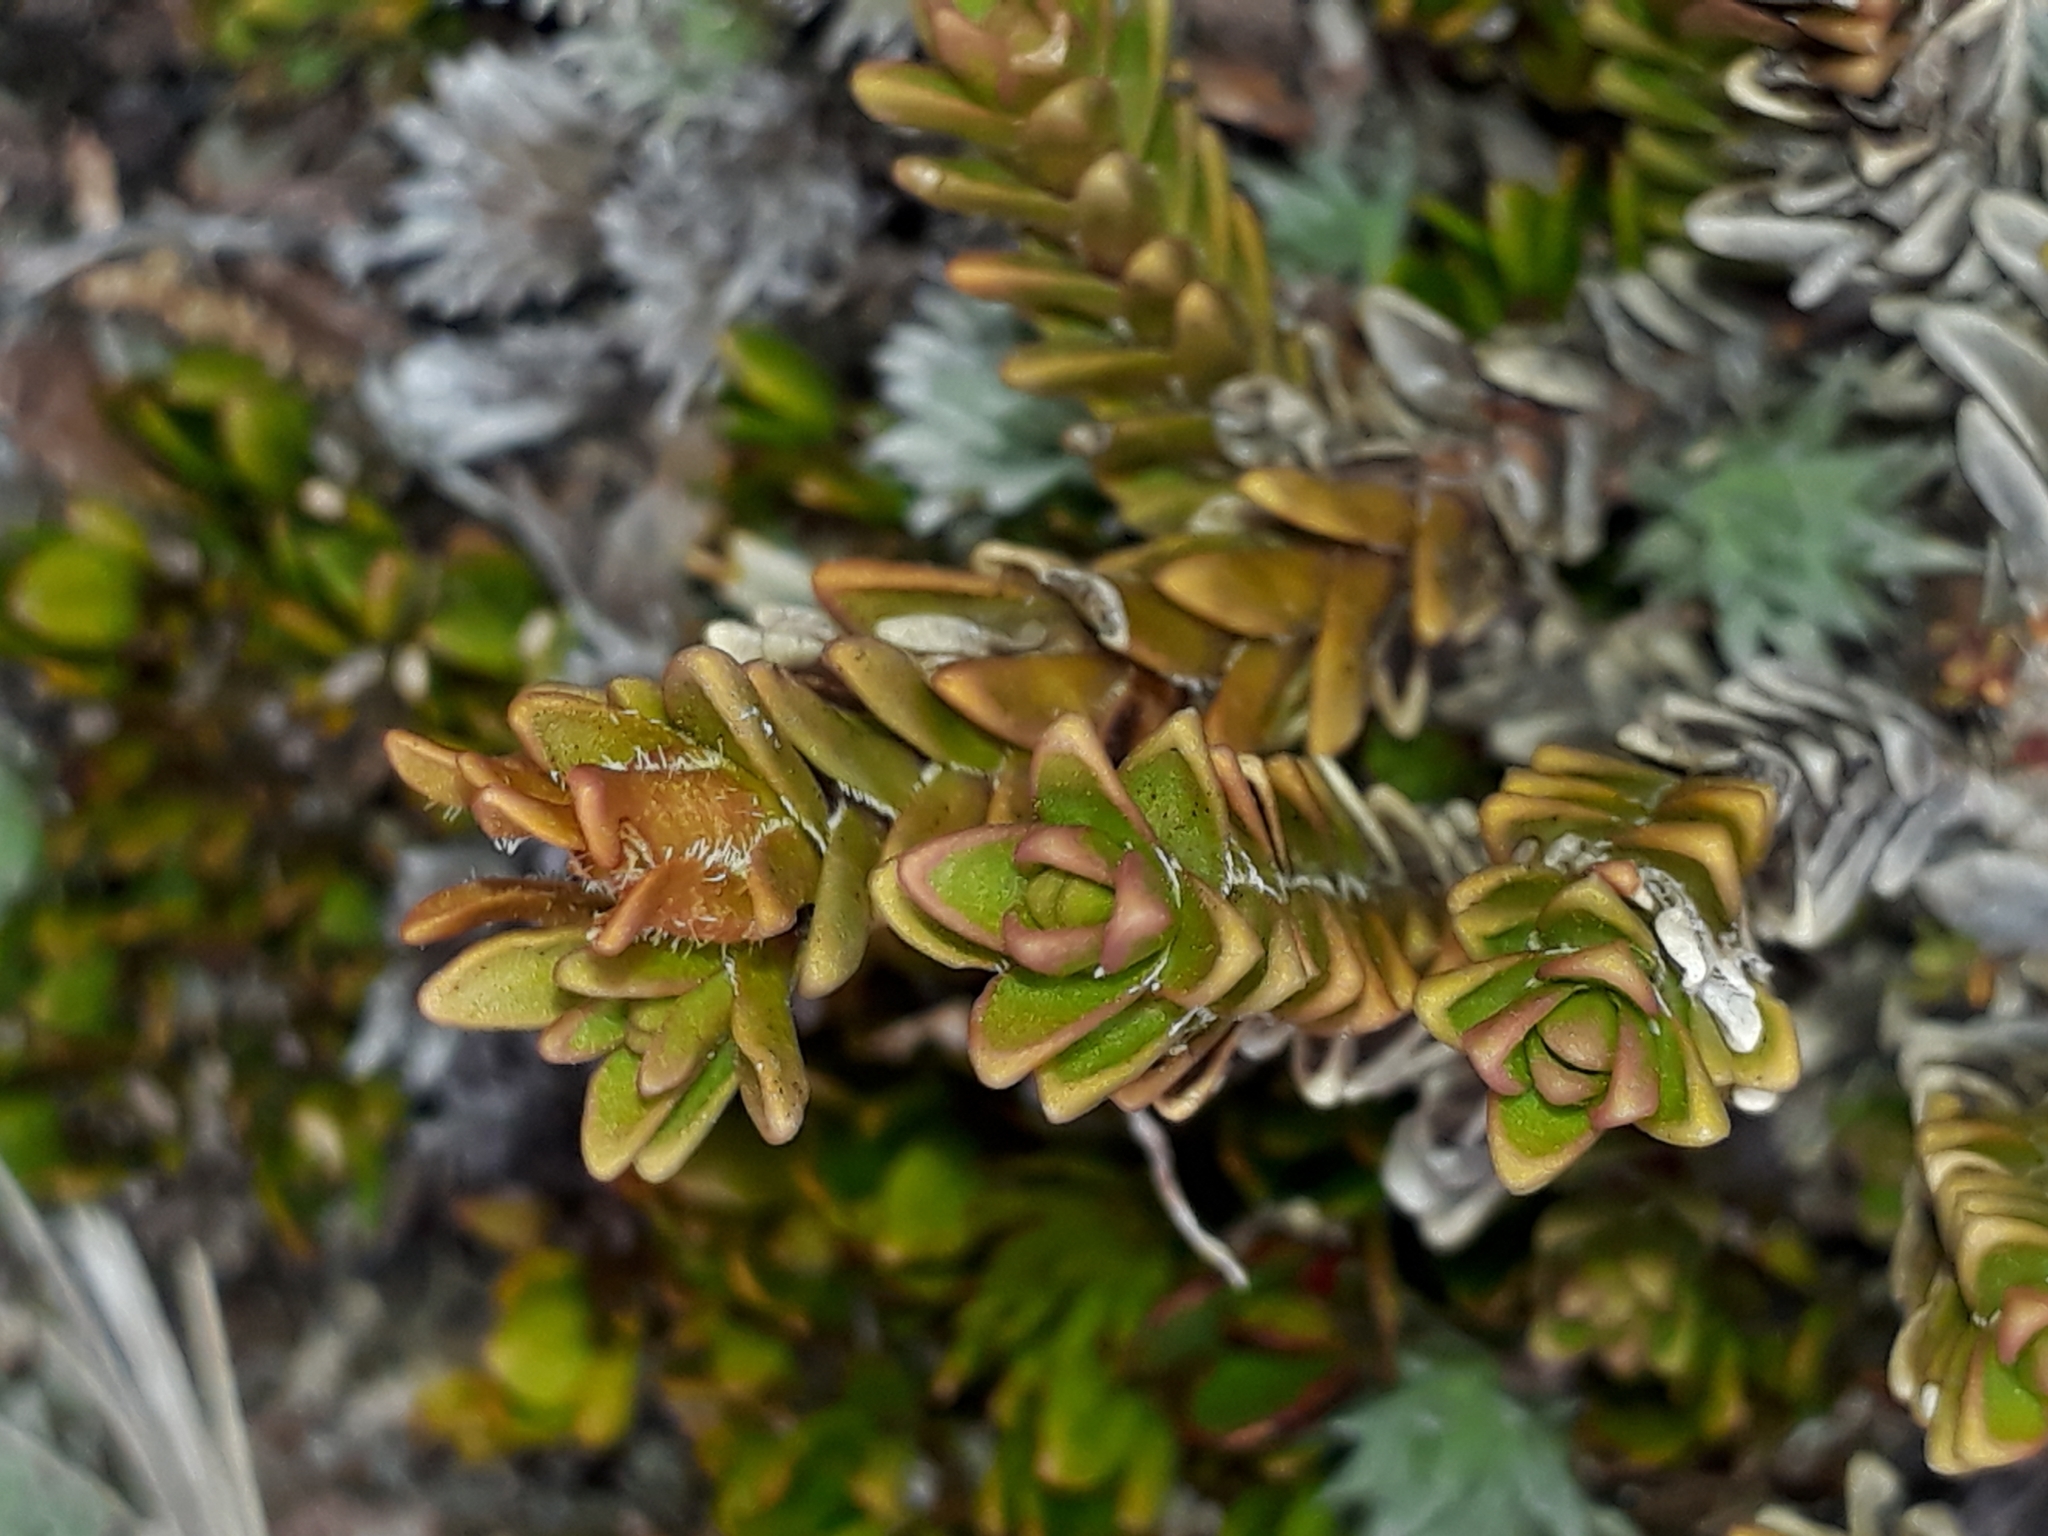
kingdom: Plantae
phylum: Tracheophyta
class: Magnoliopsida
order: Lamiales
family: Plantaginaceae
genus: Veronica
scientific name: Veronica densifolia
